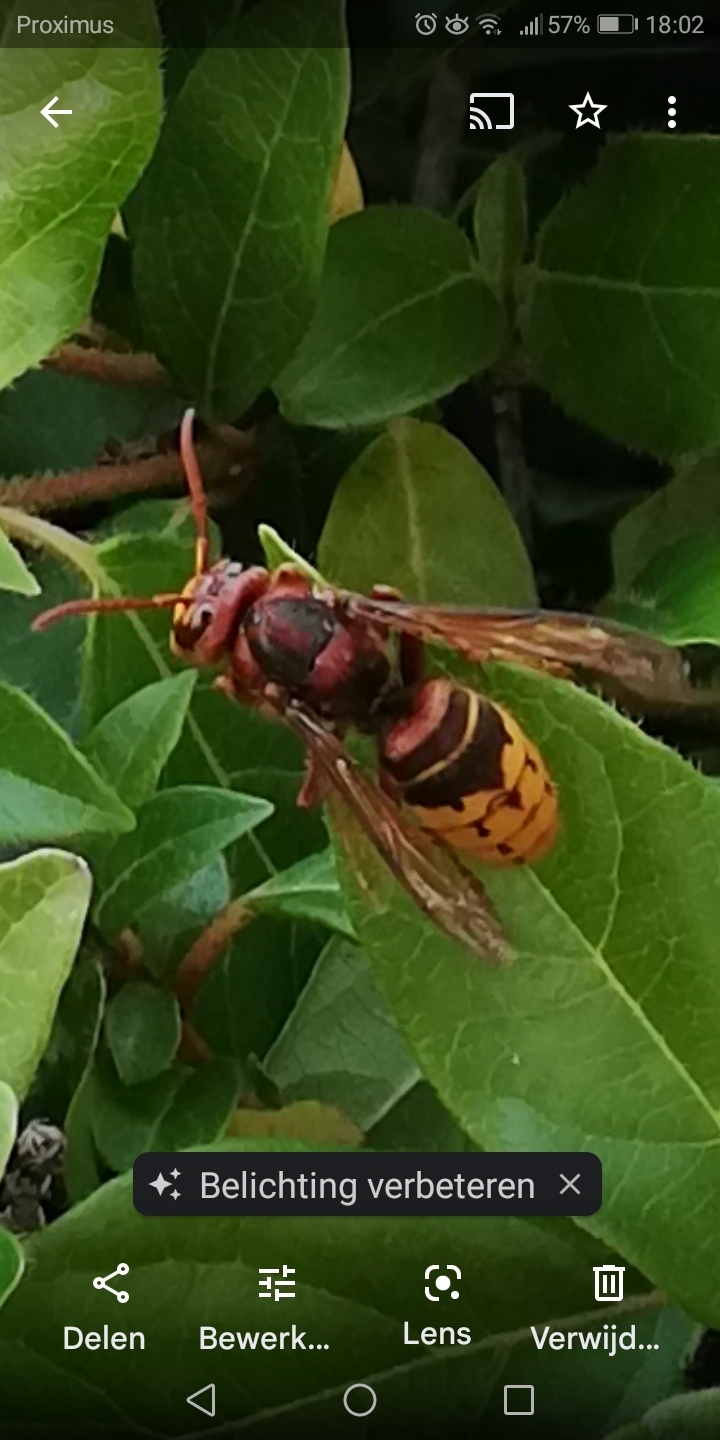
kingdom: Animalia
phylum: Arthropoda
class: Insecta
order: Hymenoptera
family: Vespidae
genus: Vespa
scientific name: Vespa crabro
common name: Hornet
